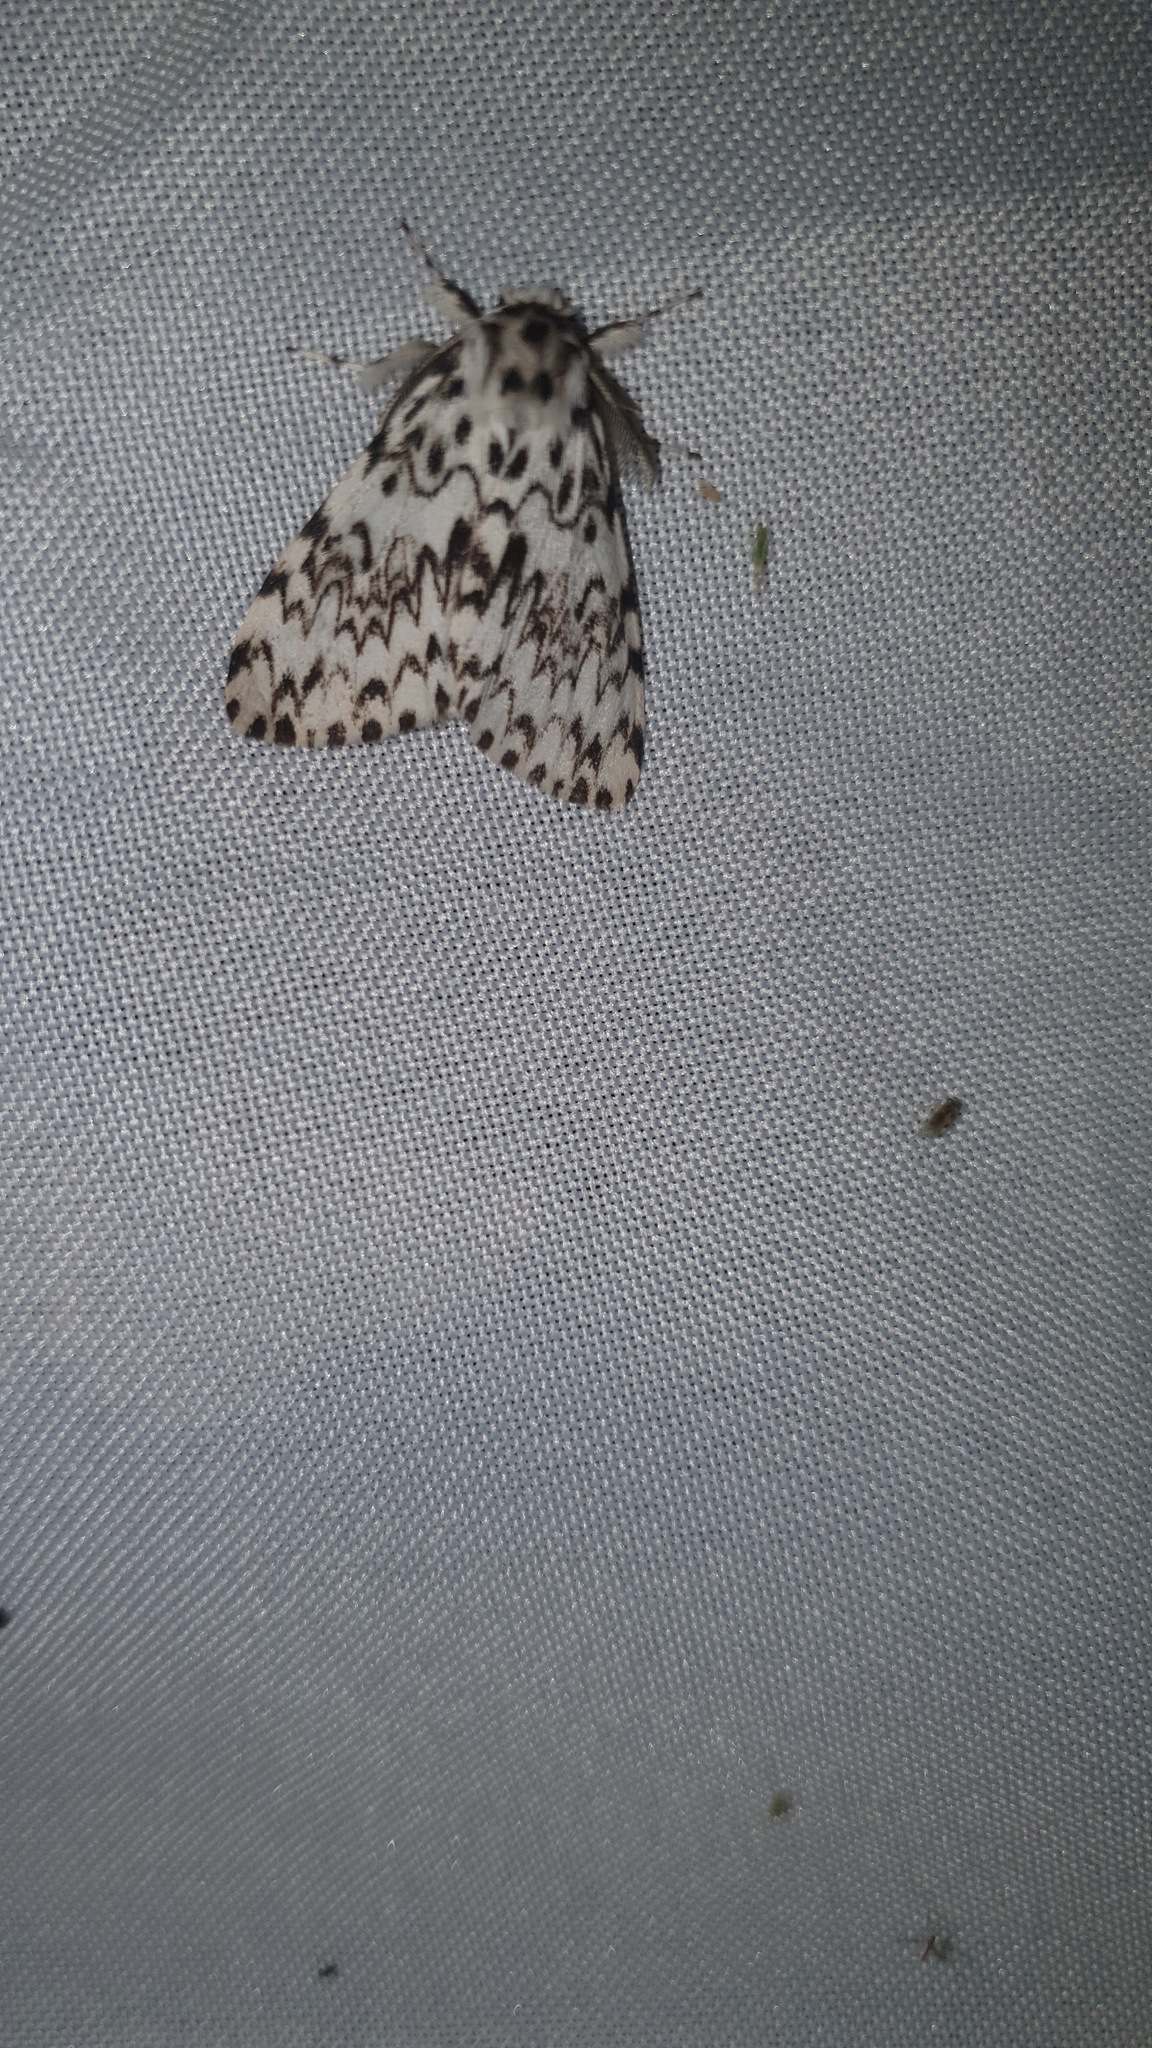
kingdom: Animalia
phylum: Arthropoda
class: Insecta
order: Lepidoptera
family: Erebidae
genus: Lymantria
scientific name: Lymantria monacha
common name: Black arches
